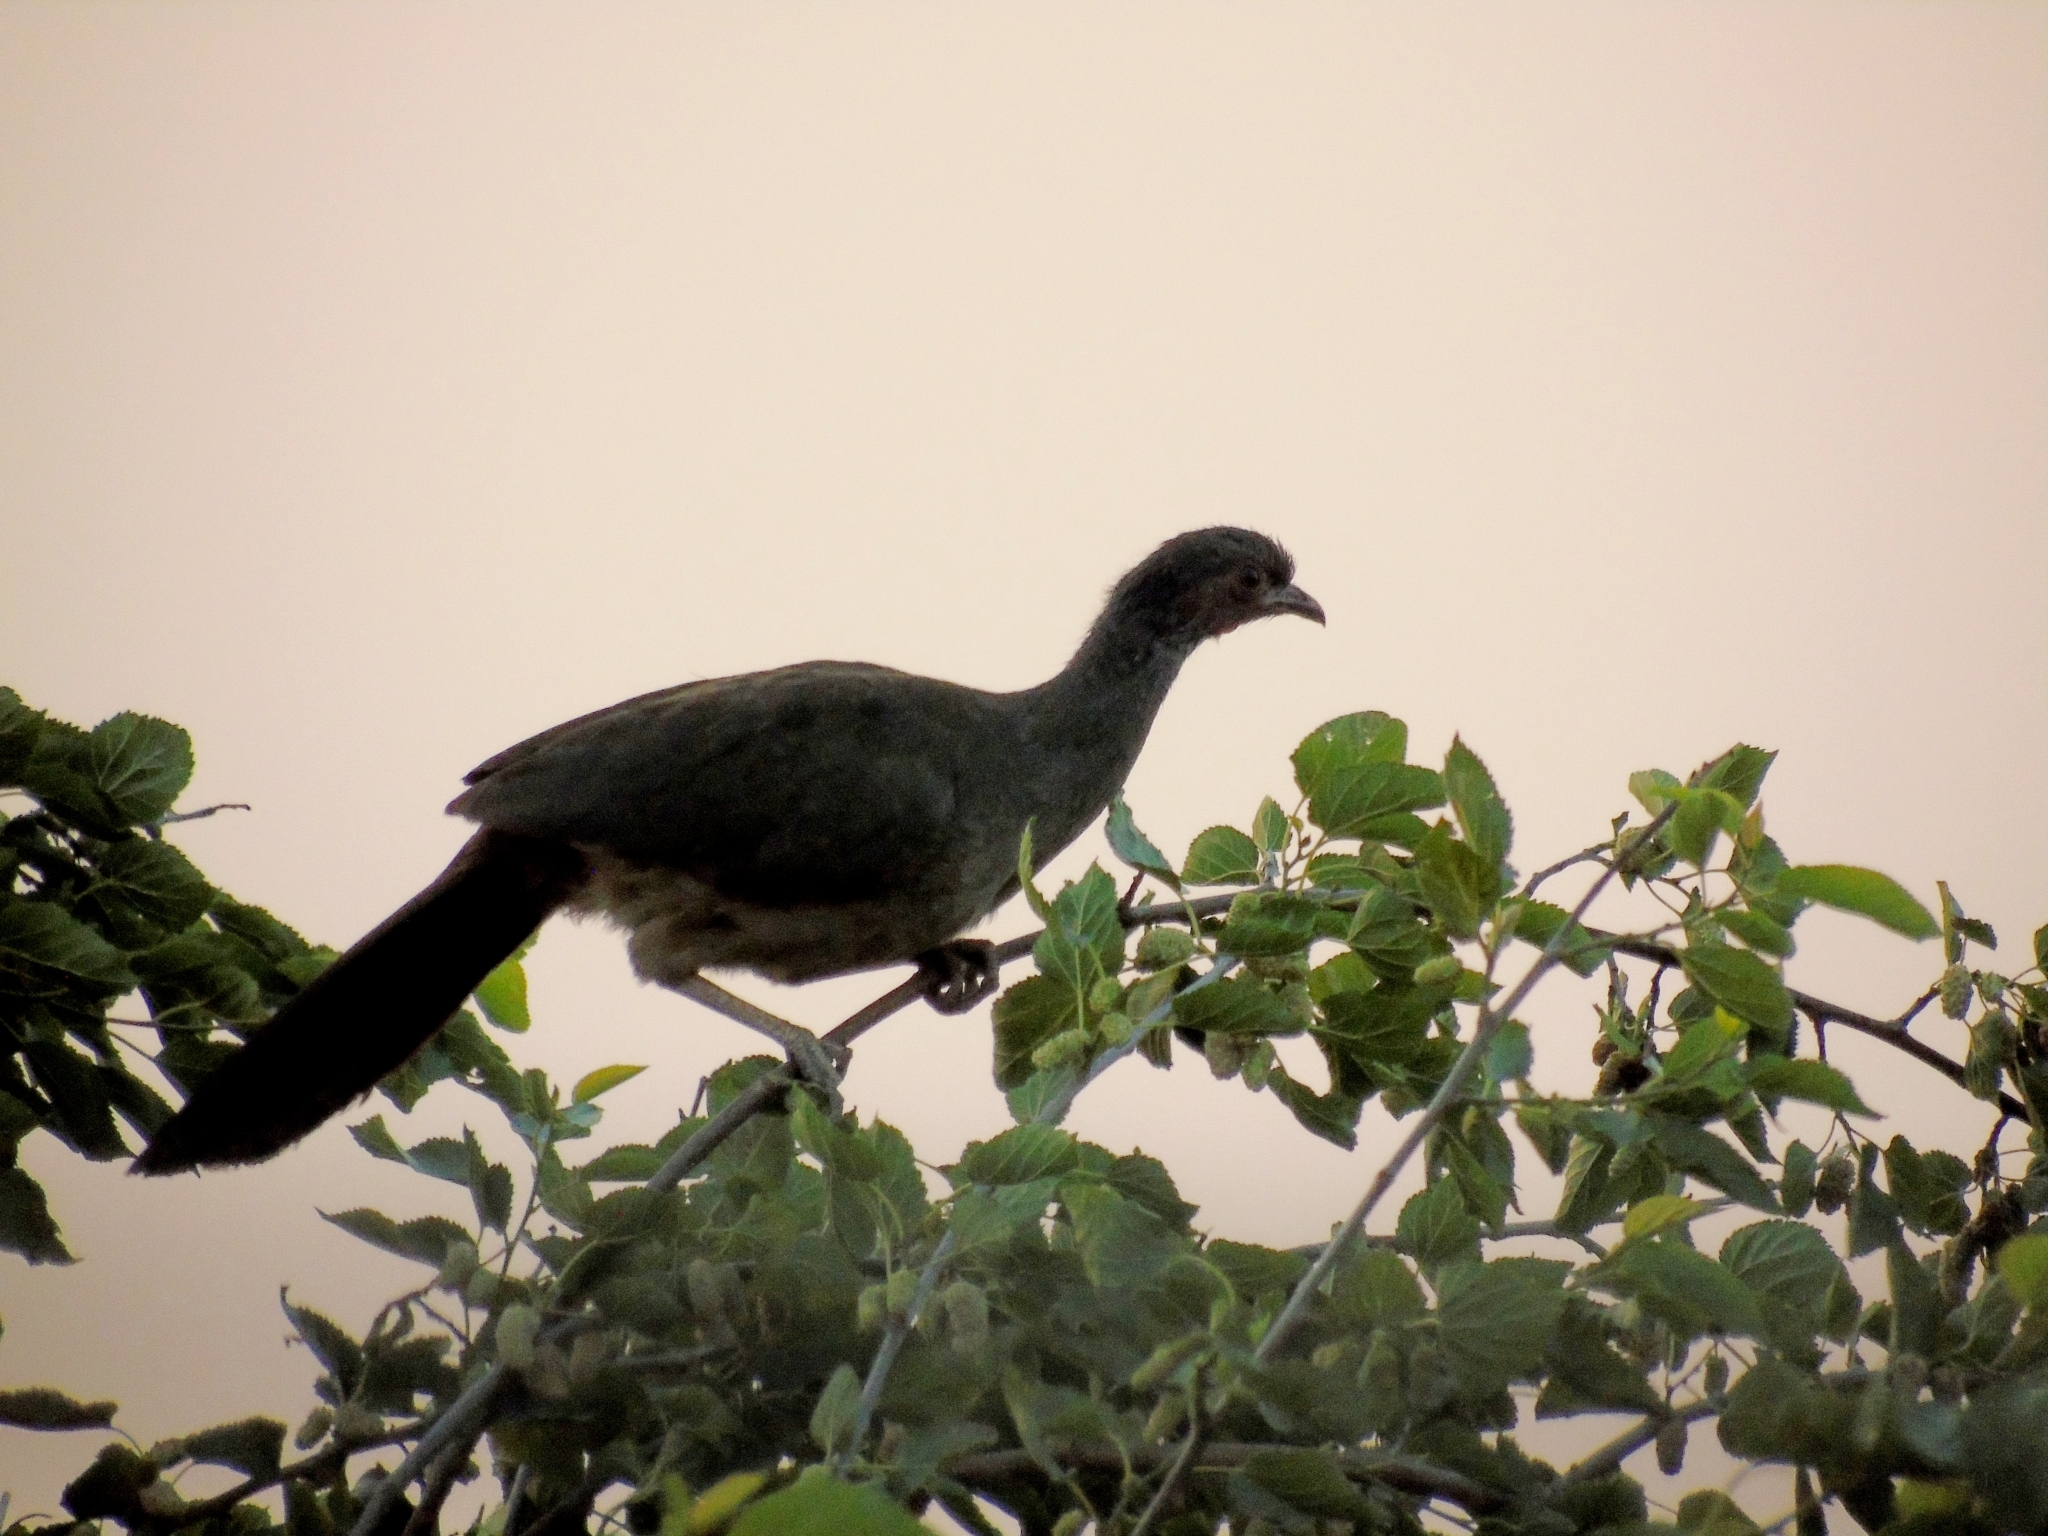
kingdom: Animalia
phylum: Chordata
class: Aves
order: Galliformes
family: Cracidae
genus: Ortalis
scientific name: Ortalis canicollis
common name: Chaco chachalaca
